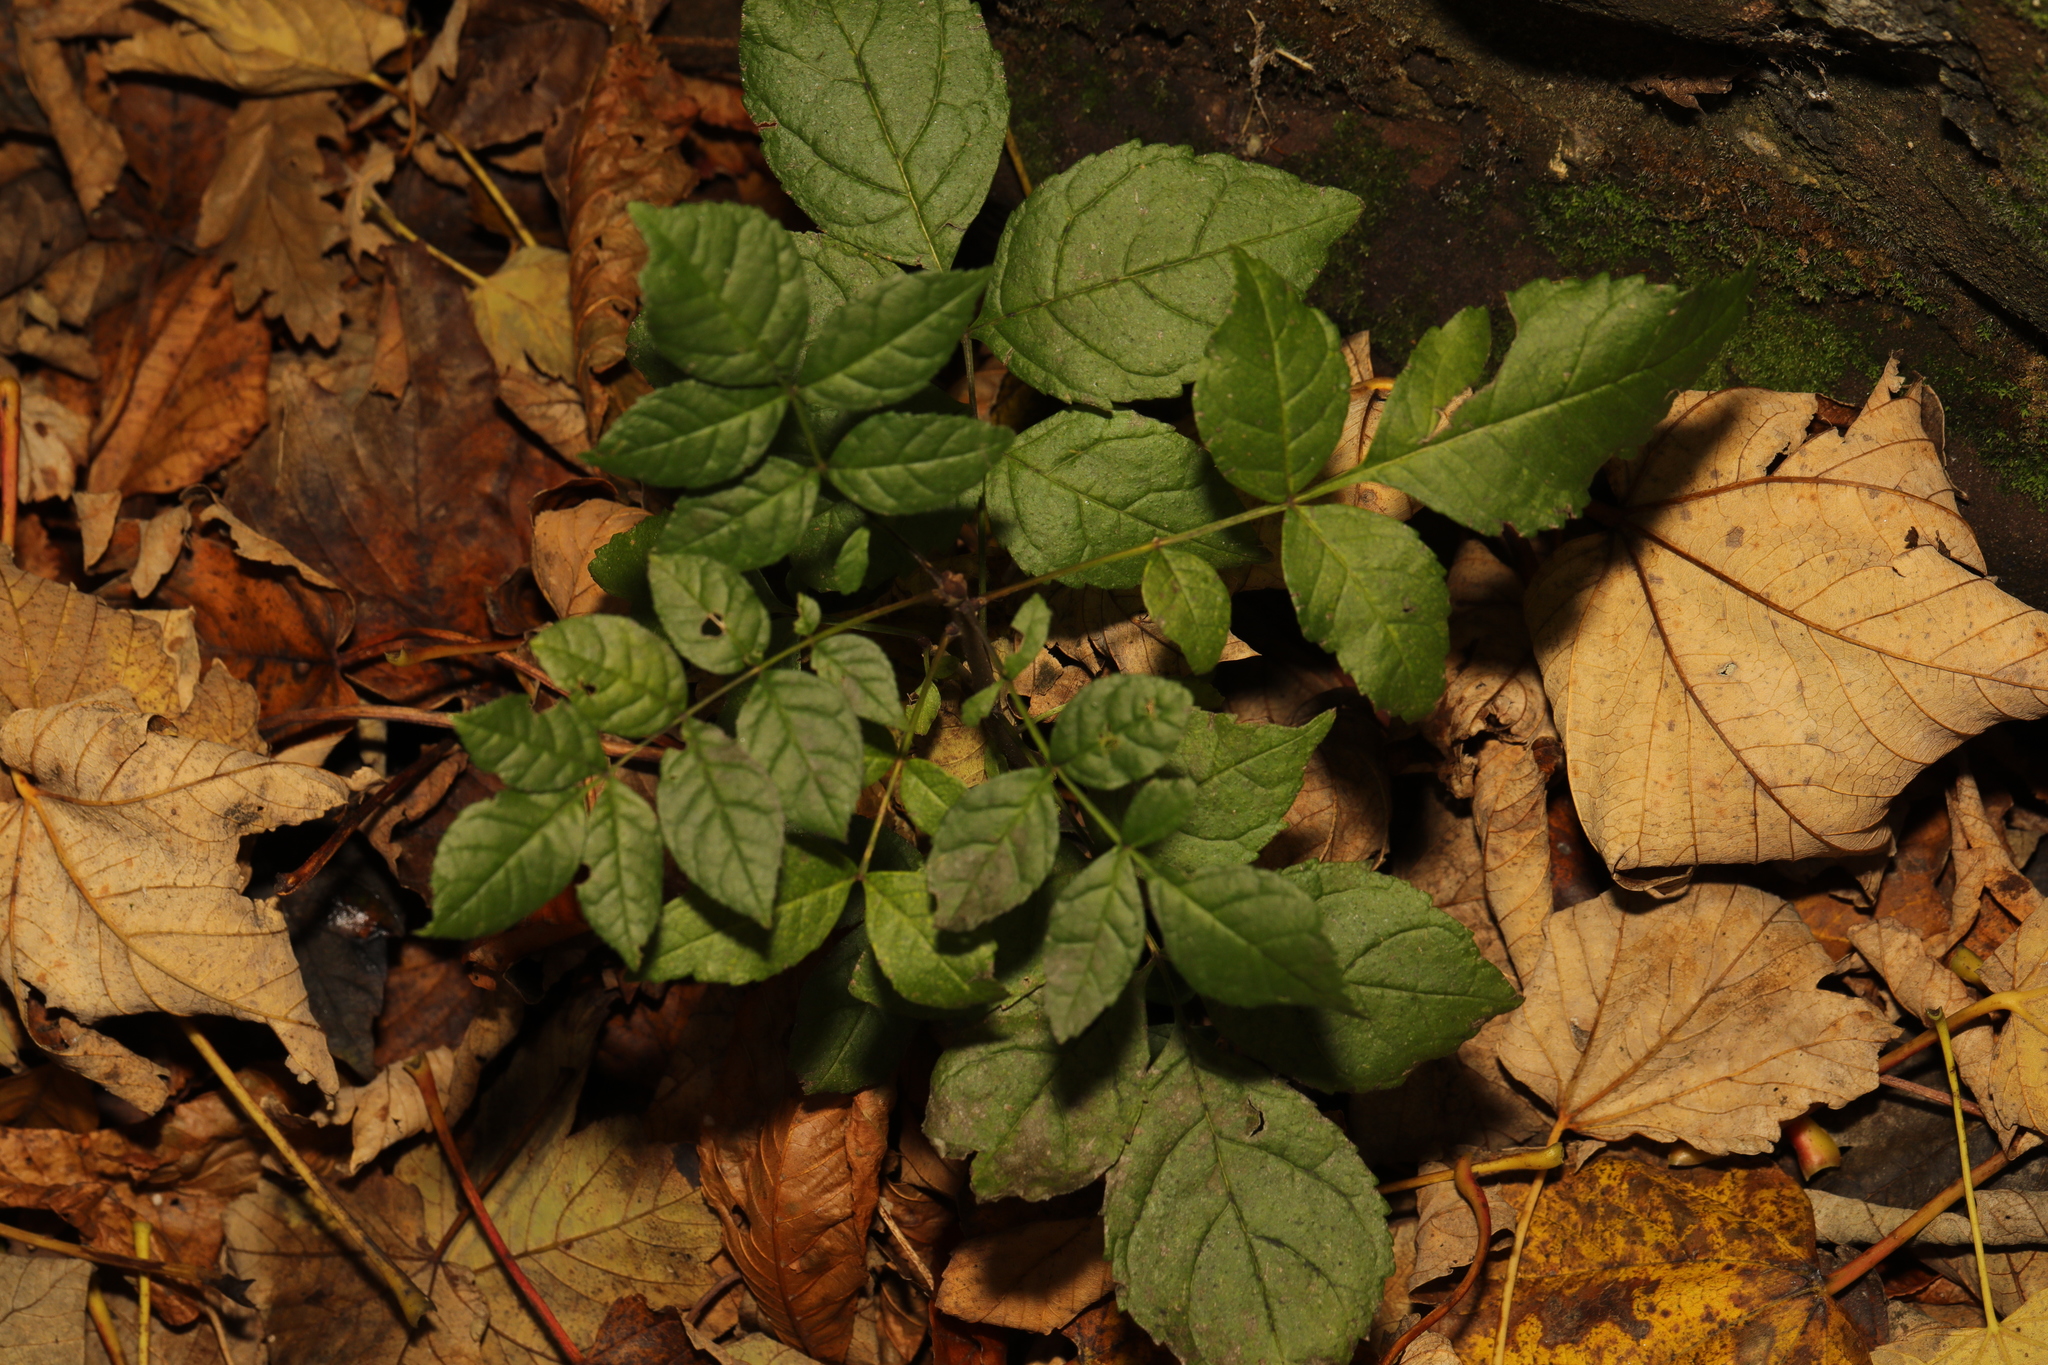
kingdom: Plantae
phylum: Tracheophyta
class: Magnoliopsida
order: Lamiales
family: Oleaceae
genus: Fraxinus
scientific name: Fraxinus excelsior
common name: European ash
